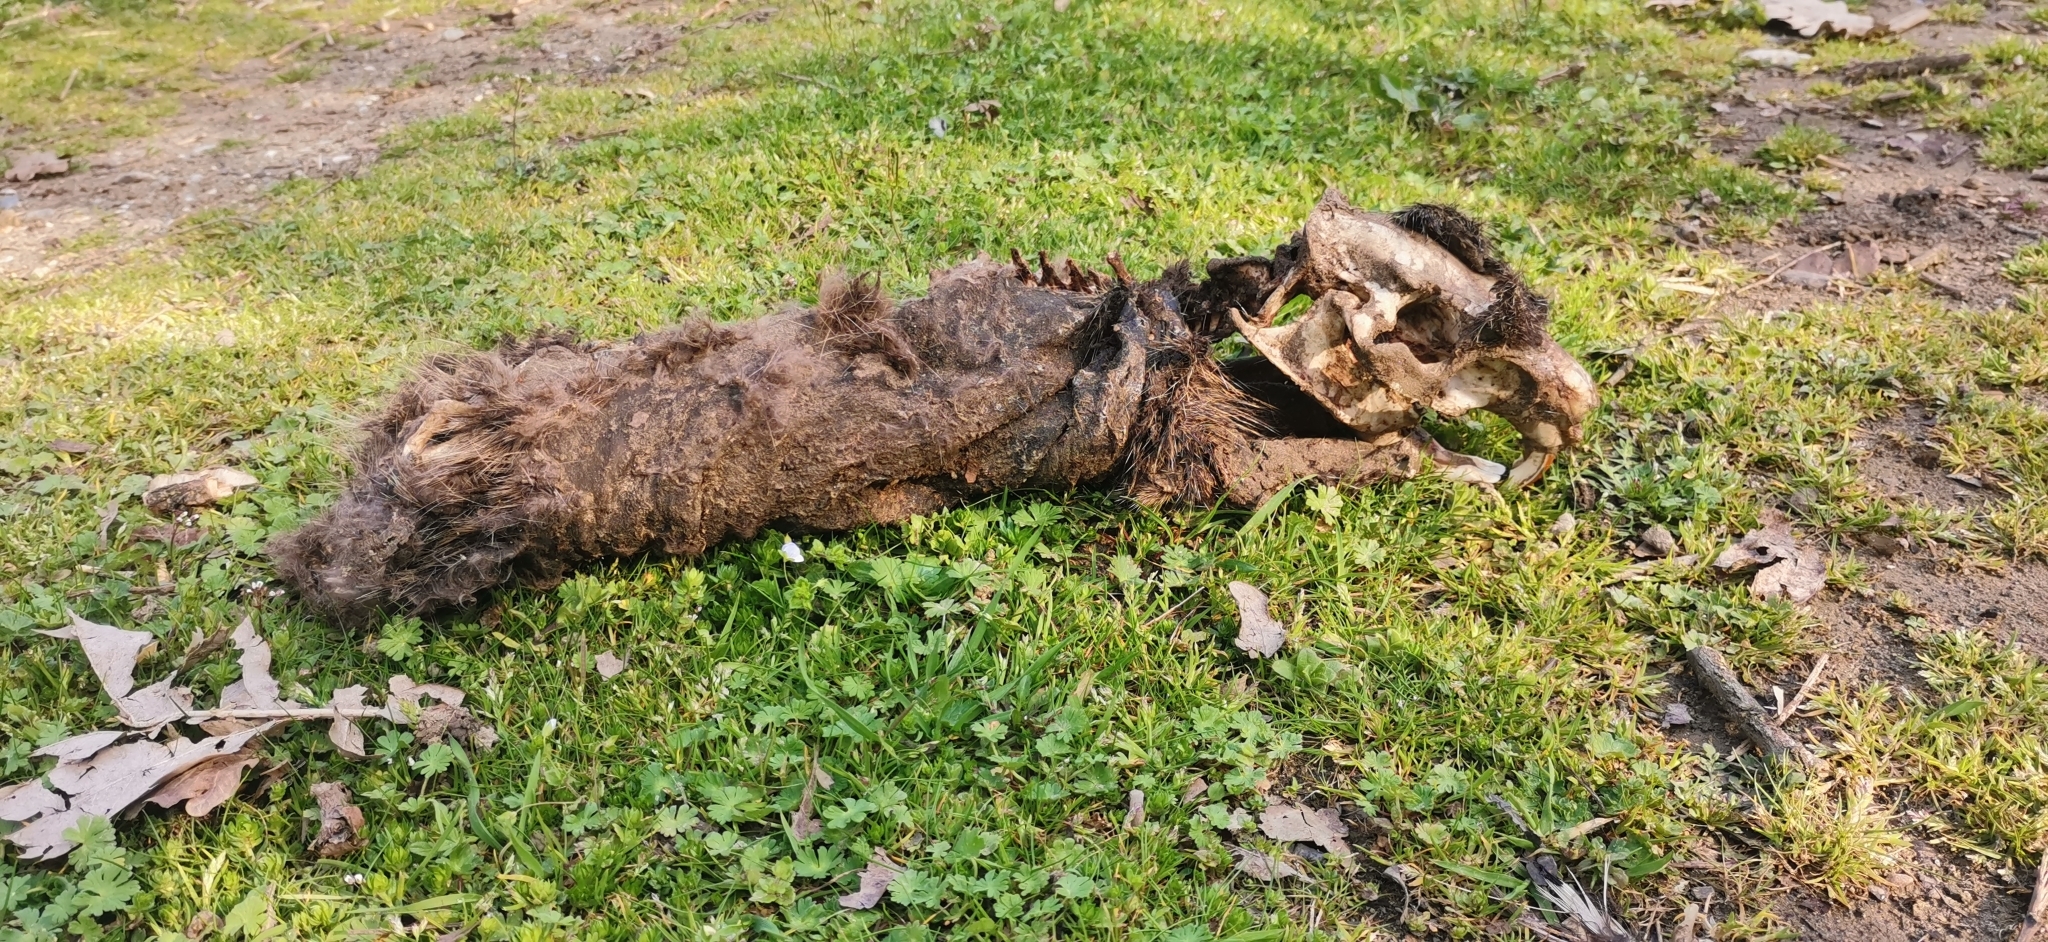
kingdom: Animalia
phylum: Chordata
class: Mammalia
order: Rodentia
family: Myocastoridae
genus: Myocastor
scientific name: Myocastor coypus
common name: Coypu
